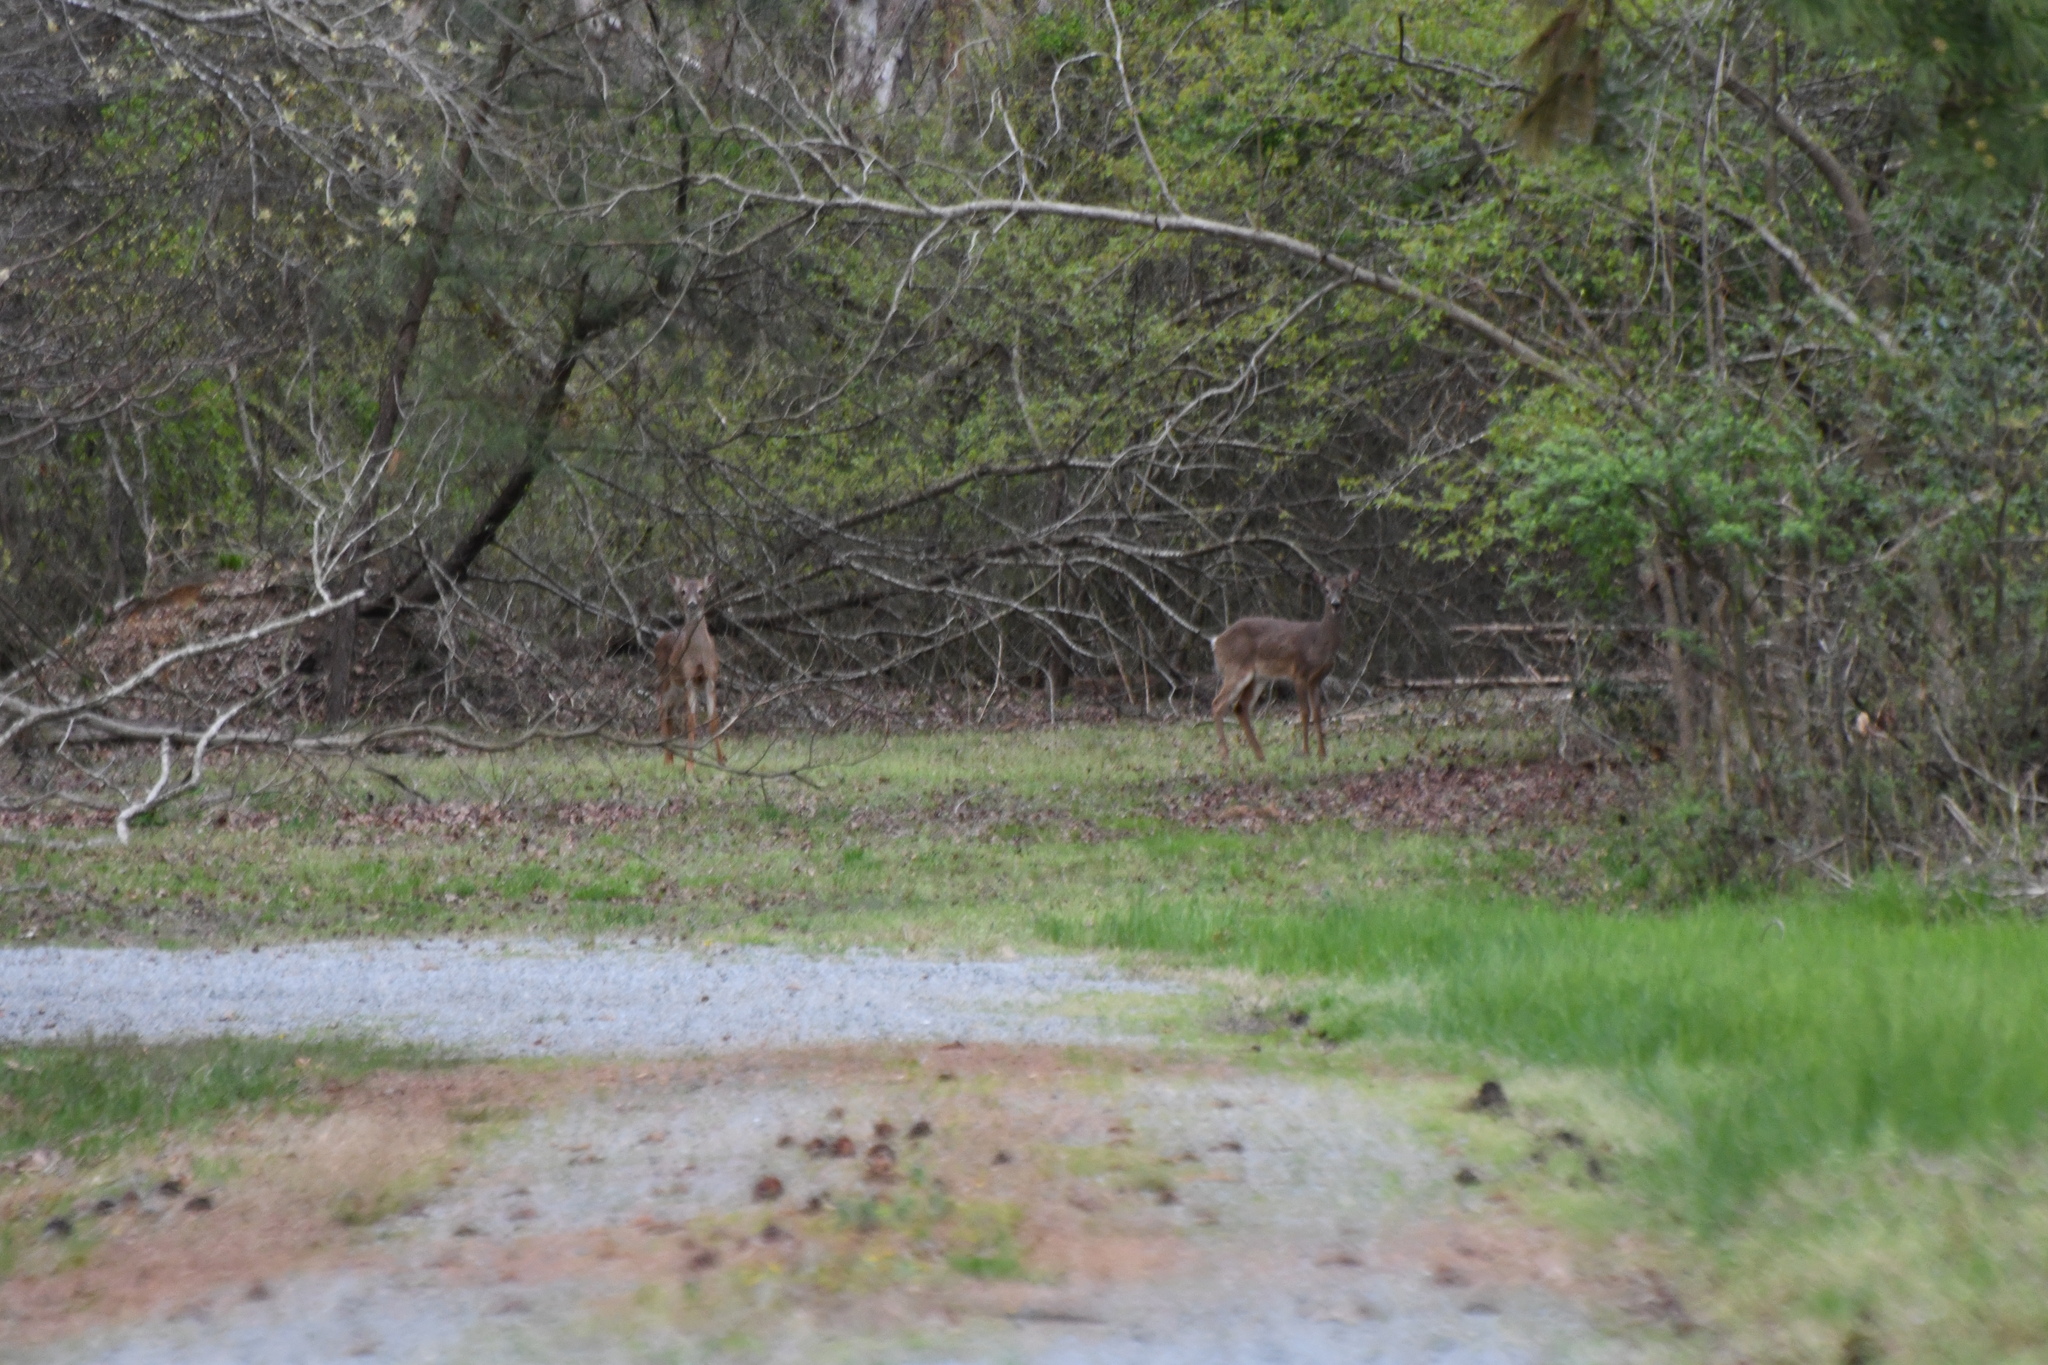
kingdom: Animalia
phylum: Chordata
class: Mammalia
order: Artiodactyla
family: Cervidae
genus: Odocoileus
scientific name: Odocoileus virginianus
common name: White-tailed deer
